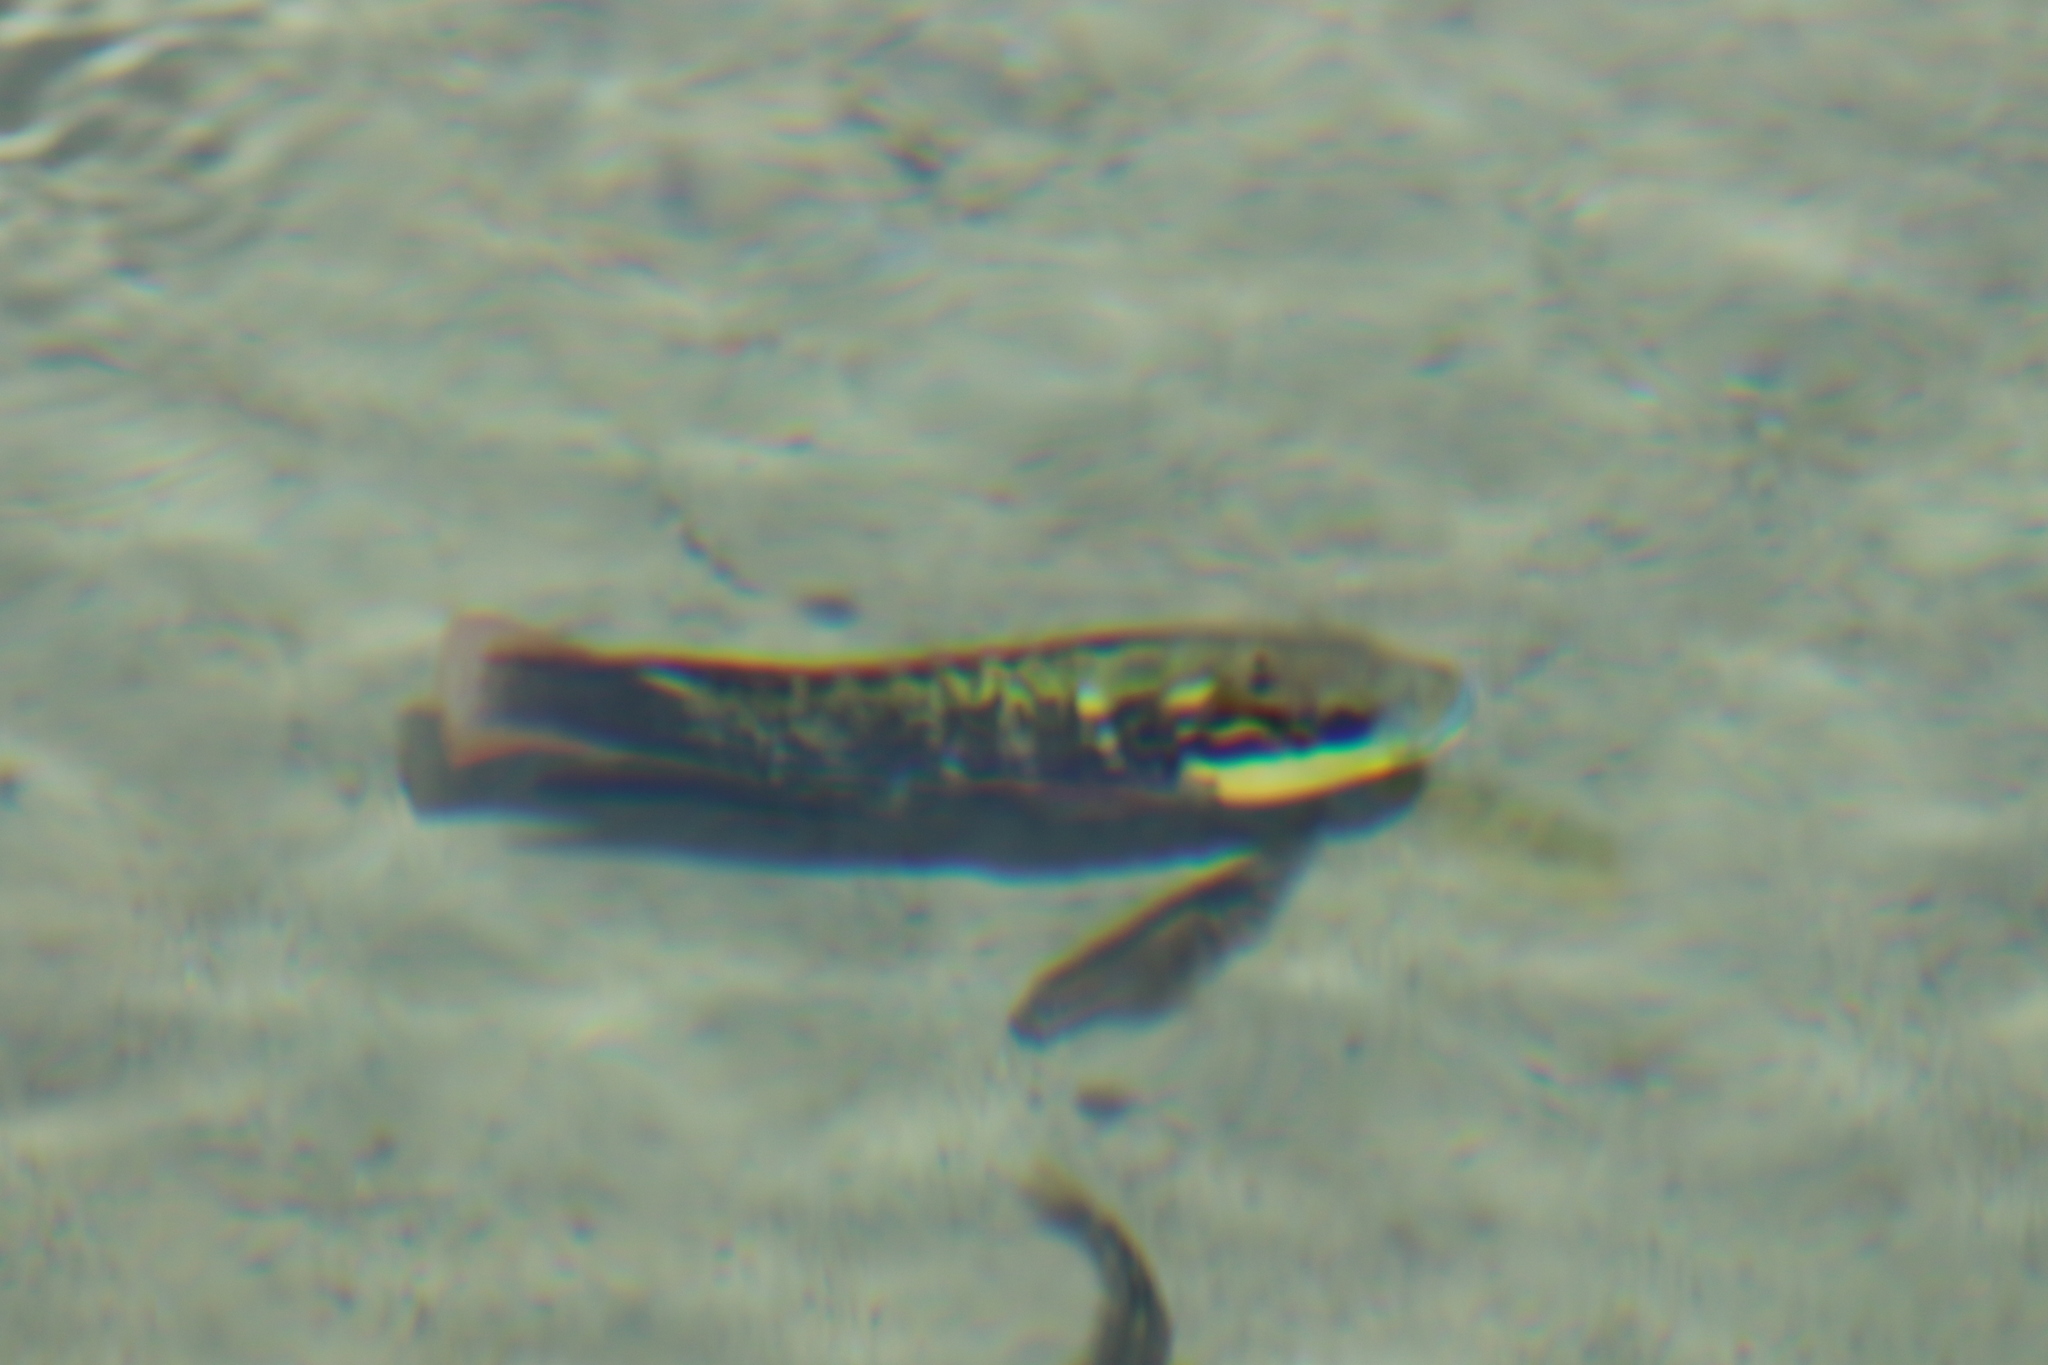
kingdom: Animalia
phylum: Chordata
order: Perciformes
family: Cichlidae
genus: Oreochromis
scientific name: Oreochromis mossambicus
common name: Mozambique tilapia
